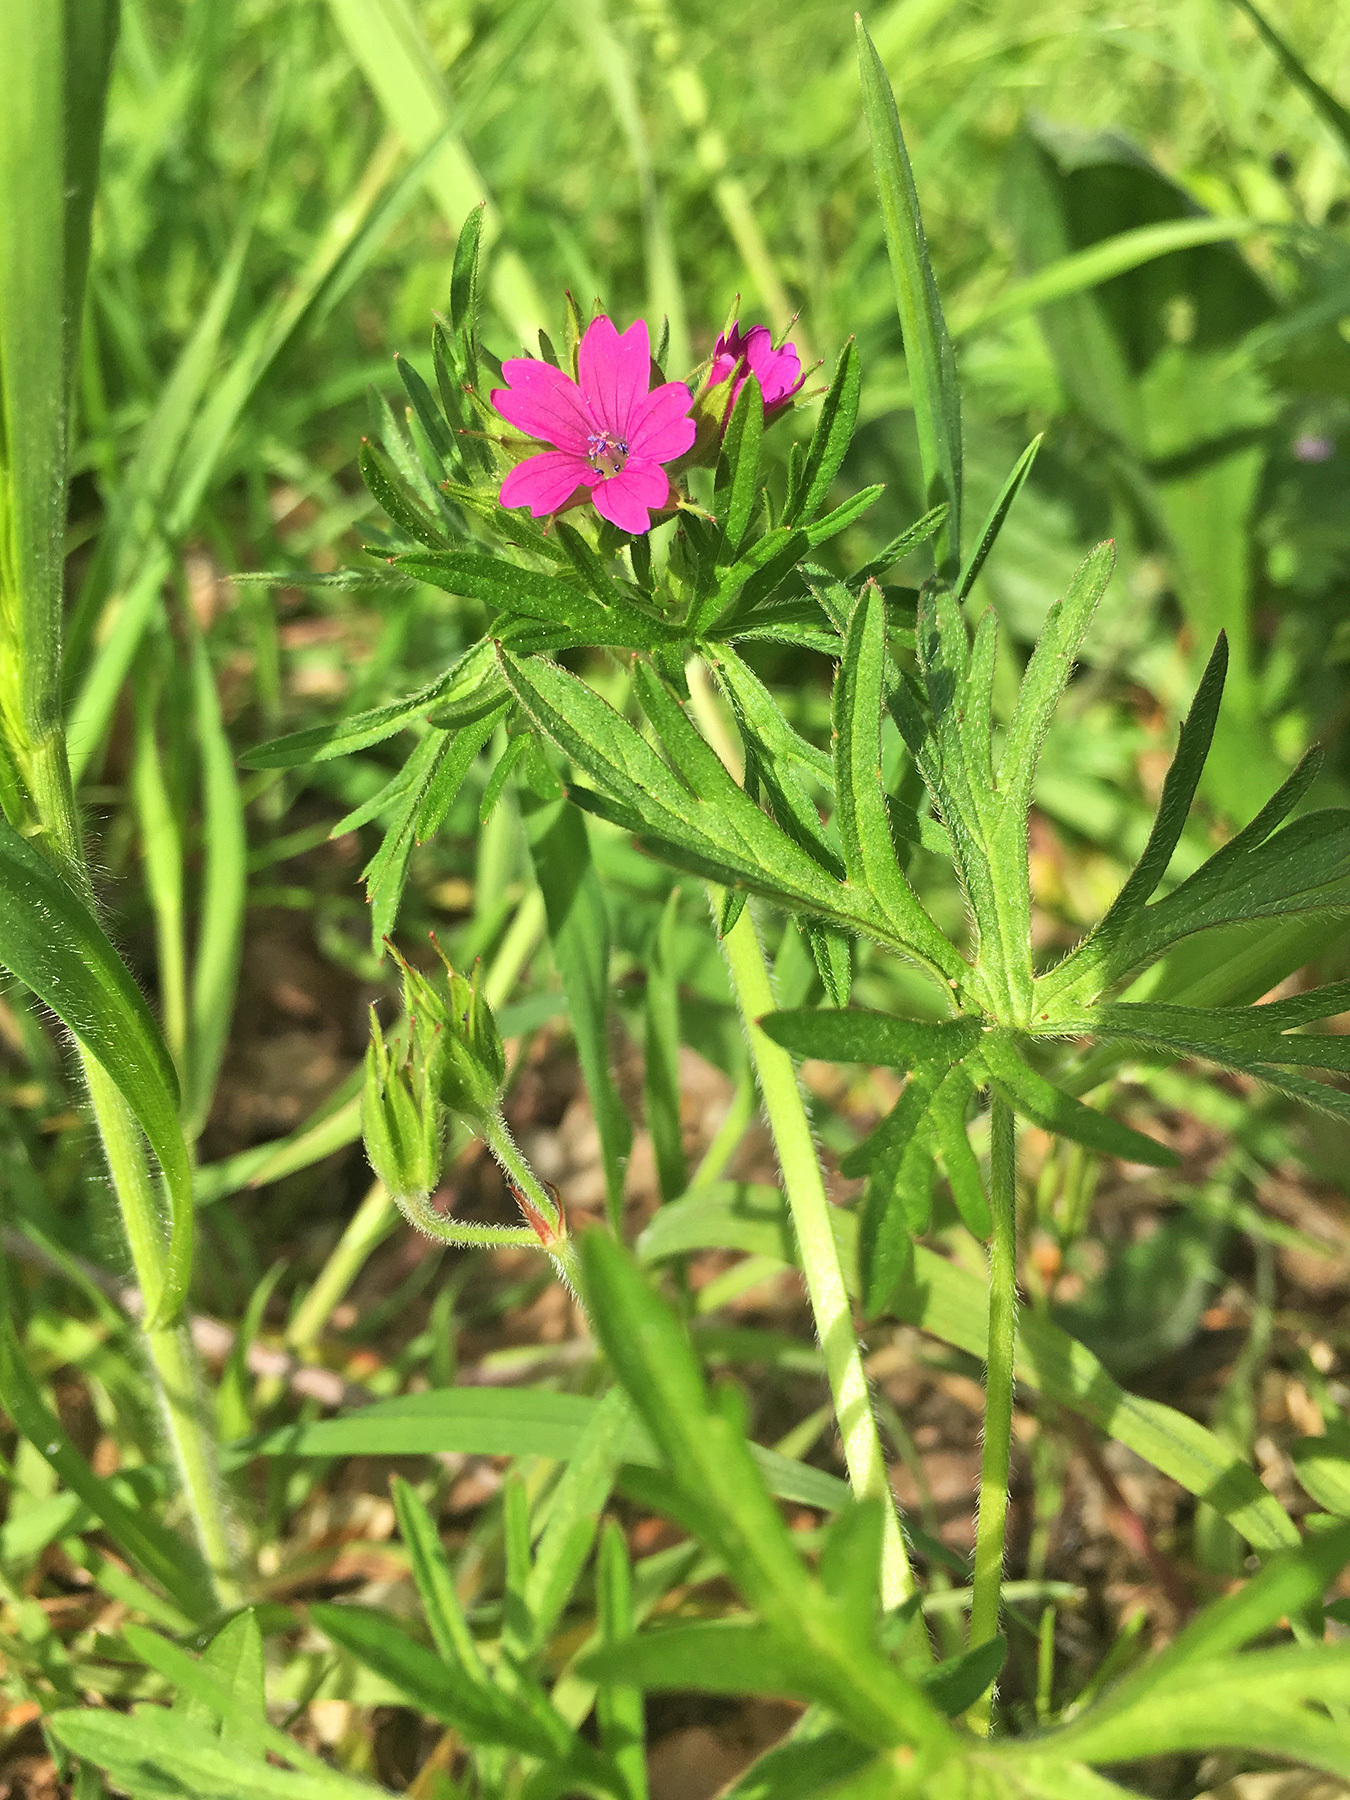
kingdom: Plantae
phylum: Tracheophyta
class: Magnoliopsida
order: Geraniales
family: Geraniaceae
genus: Geranium
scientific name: Geranium dissectum
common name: Cut-leaved crane's-bill
